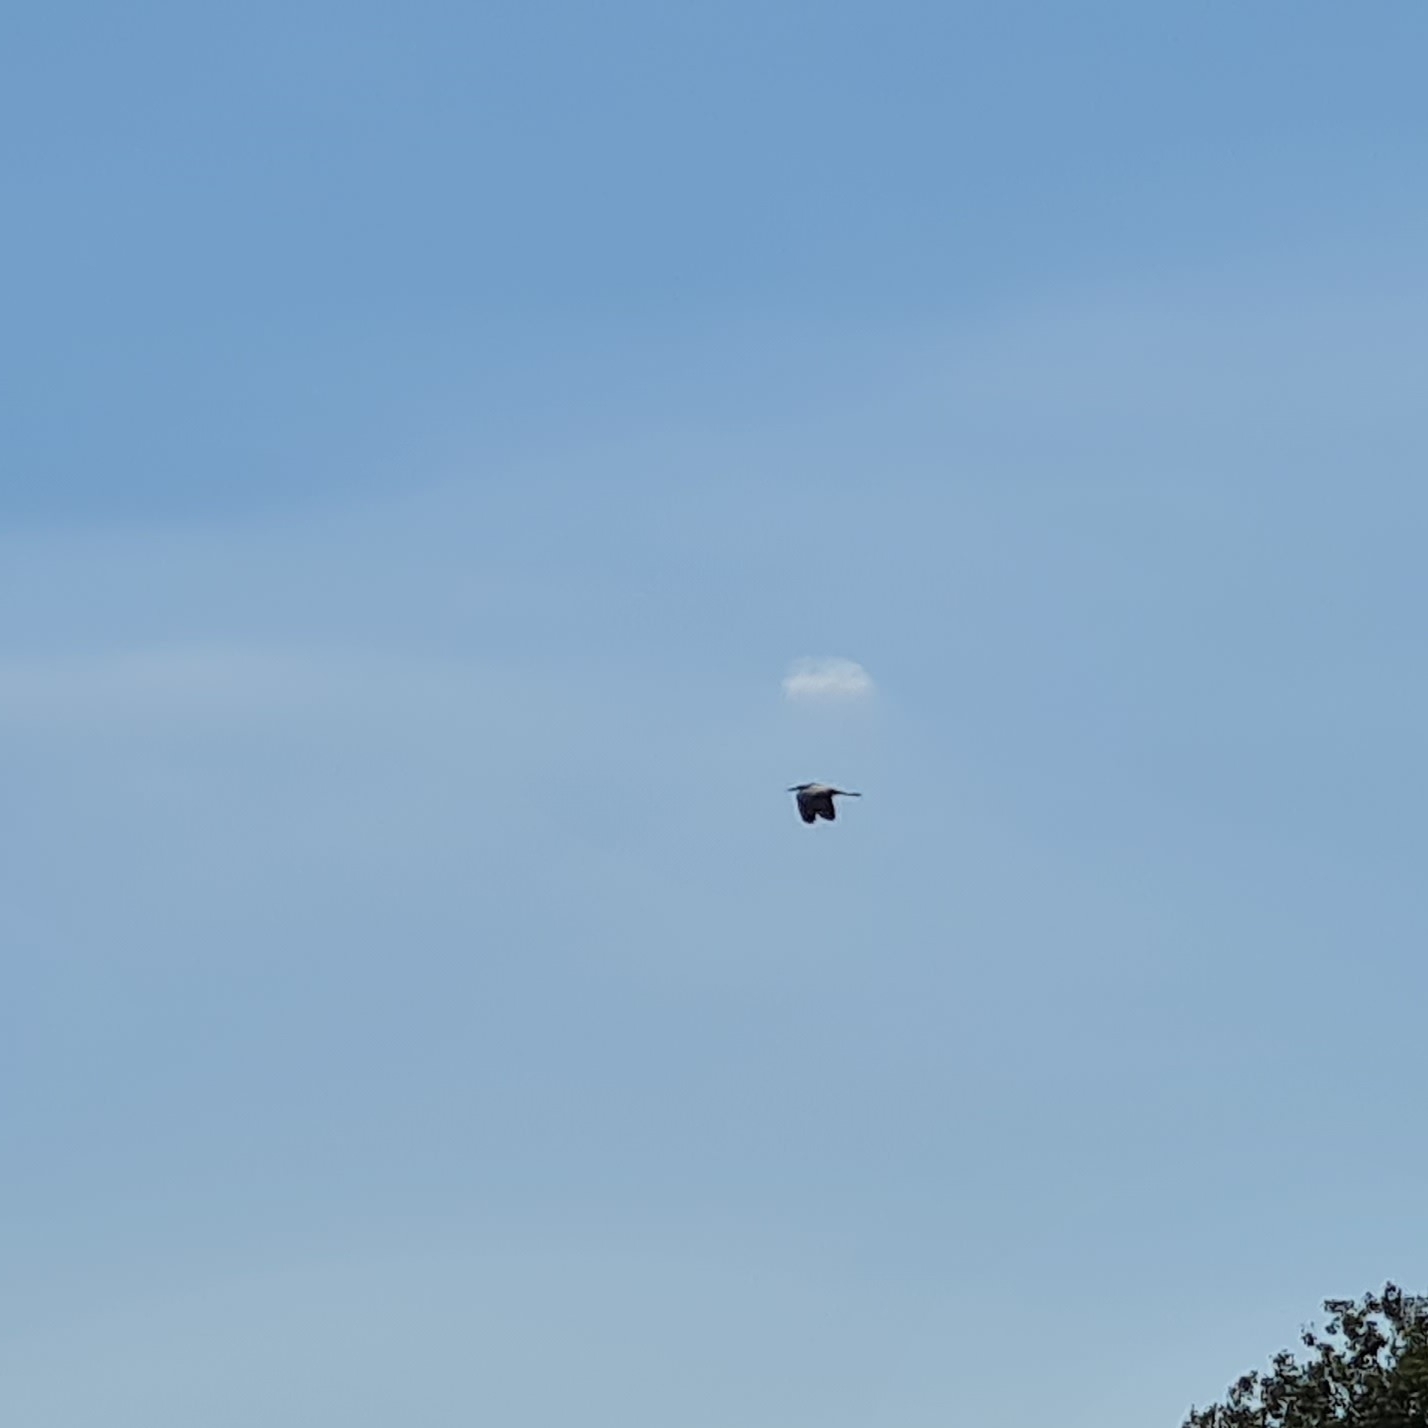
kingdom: Animalia
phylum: Chordata
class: Aves
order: Pelecaniformes
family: Ardeidae
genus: Ardea
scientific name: Ardea cinerea
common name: Grey heron
